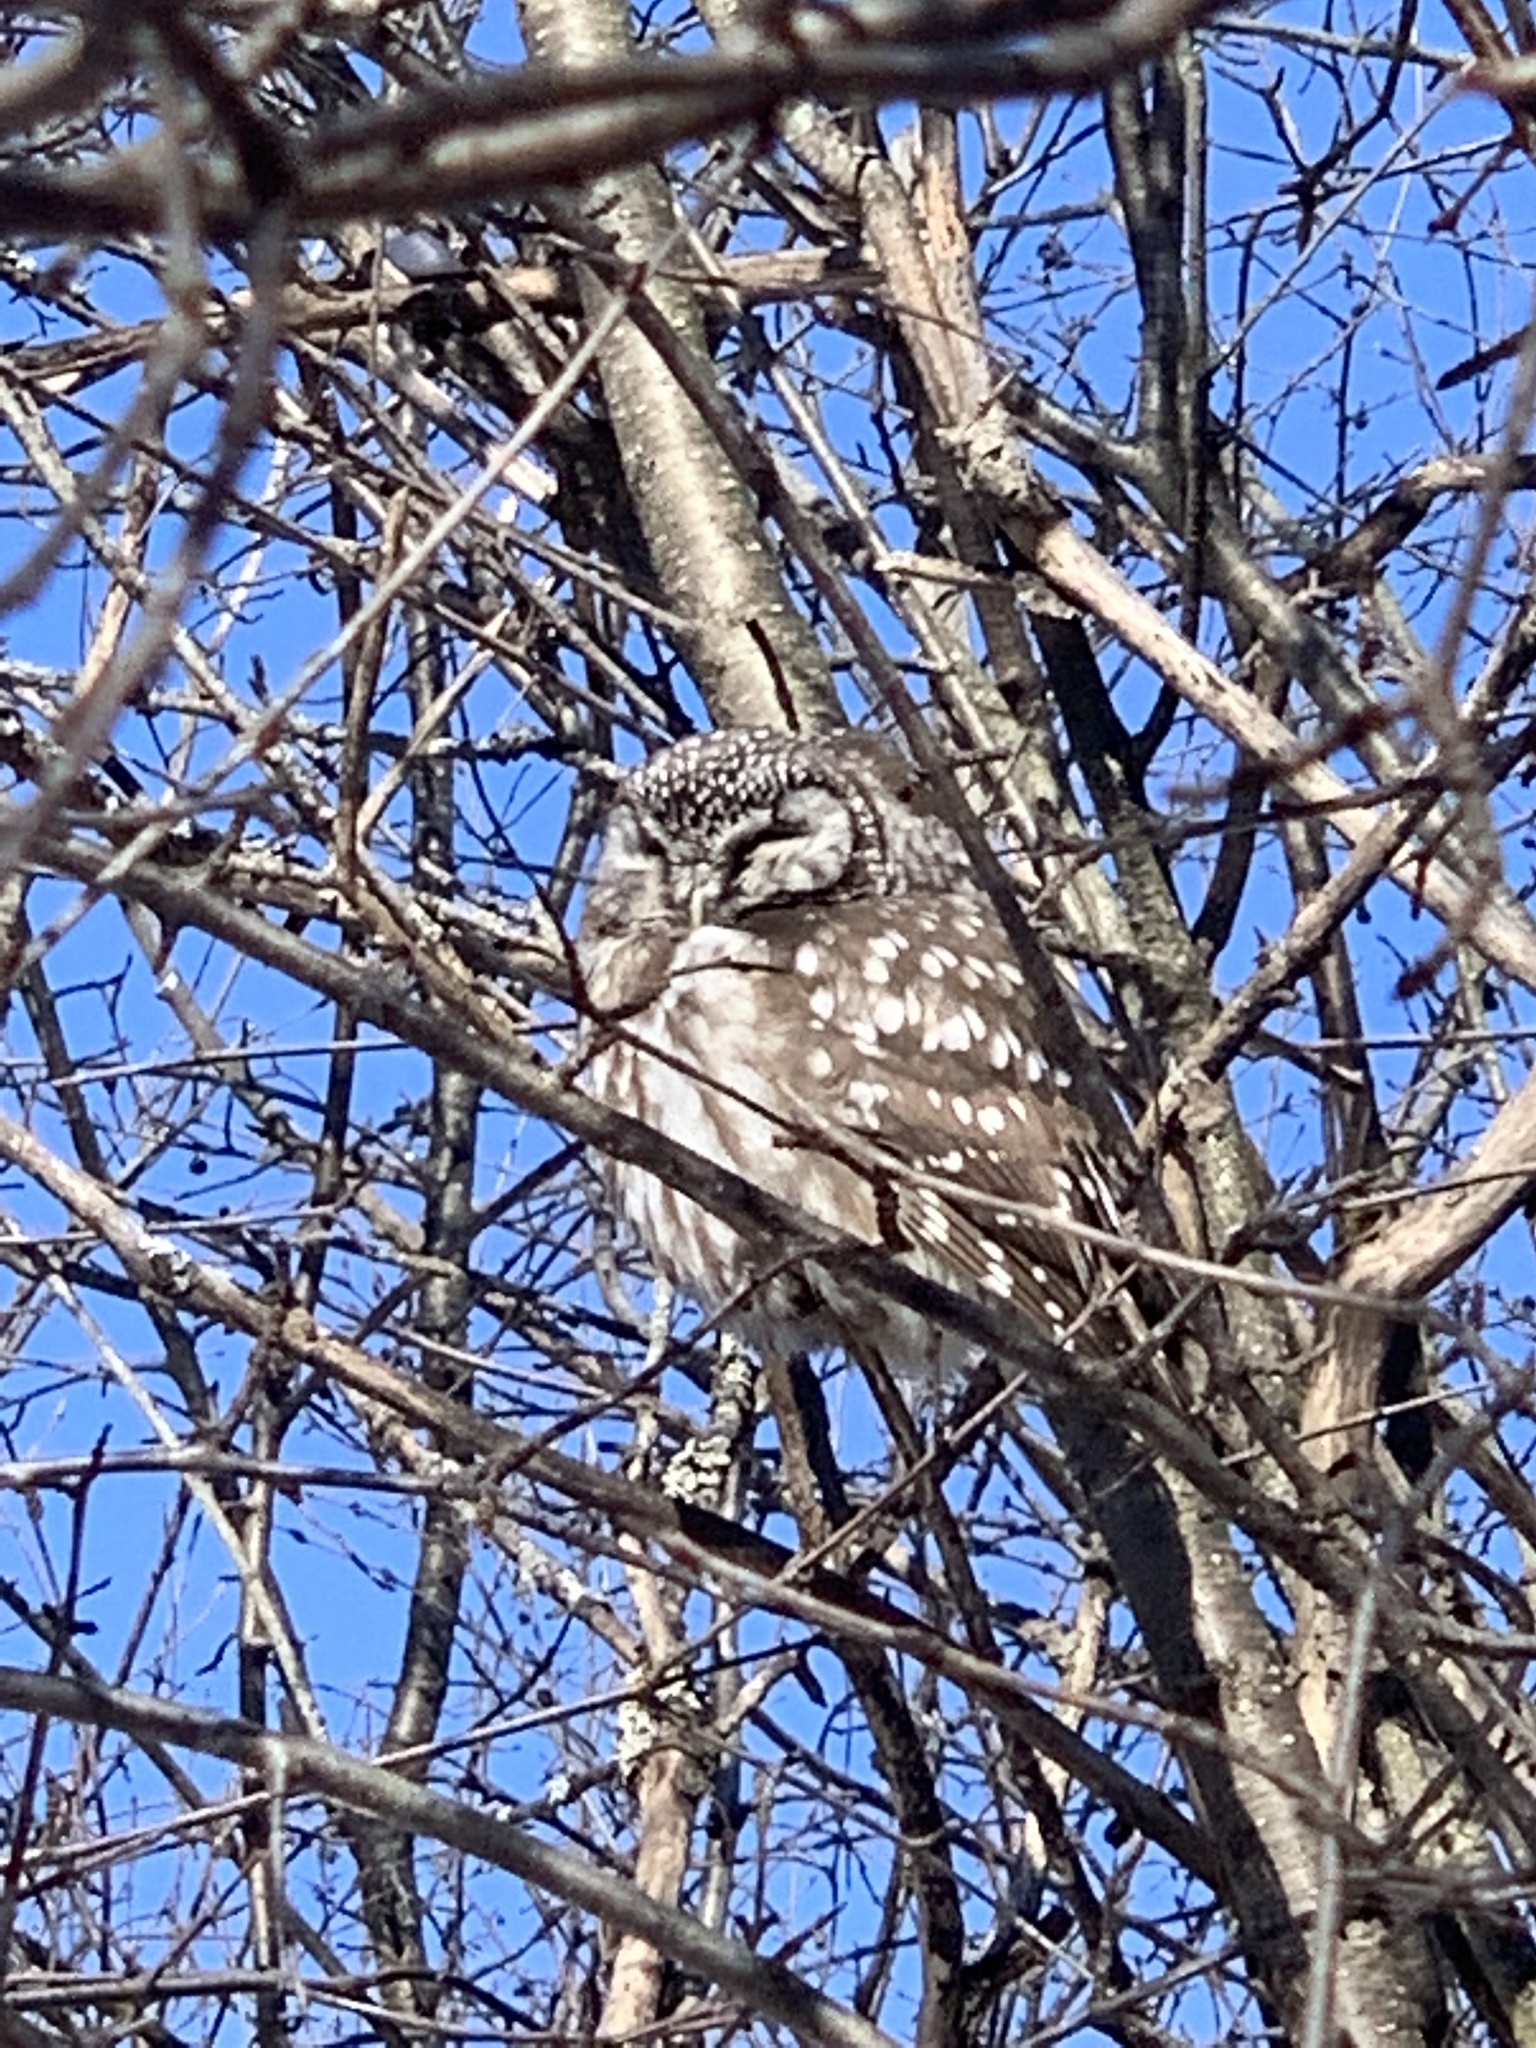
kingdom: Animalia
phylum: Chordata
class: Aves
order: Strigiformes
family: Strigidae
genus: Aegolius
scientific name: Aegolius funereus
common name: Boreal owl
